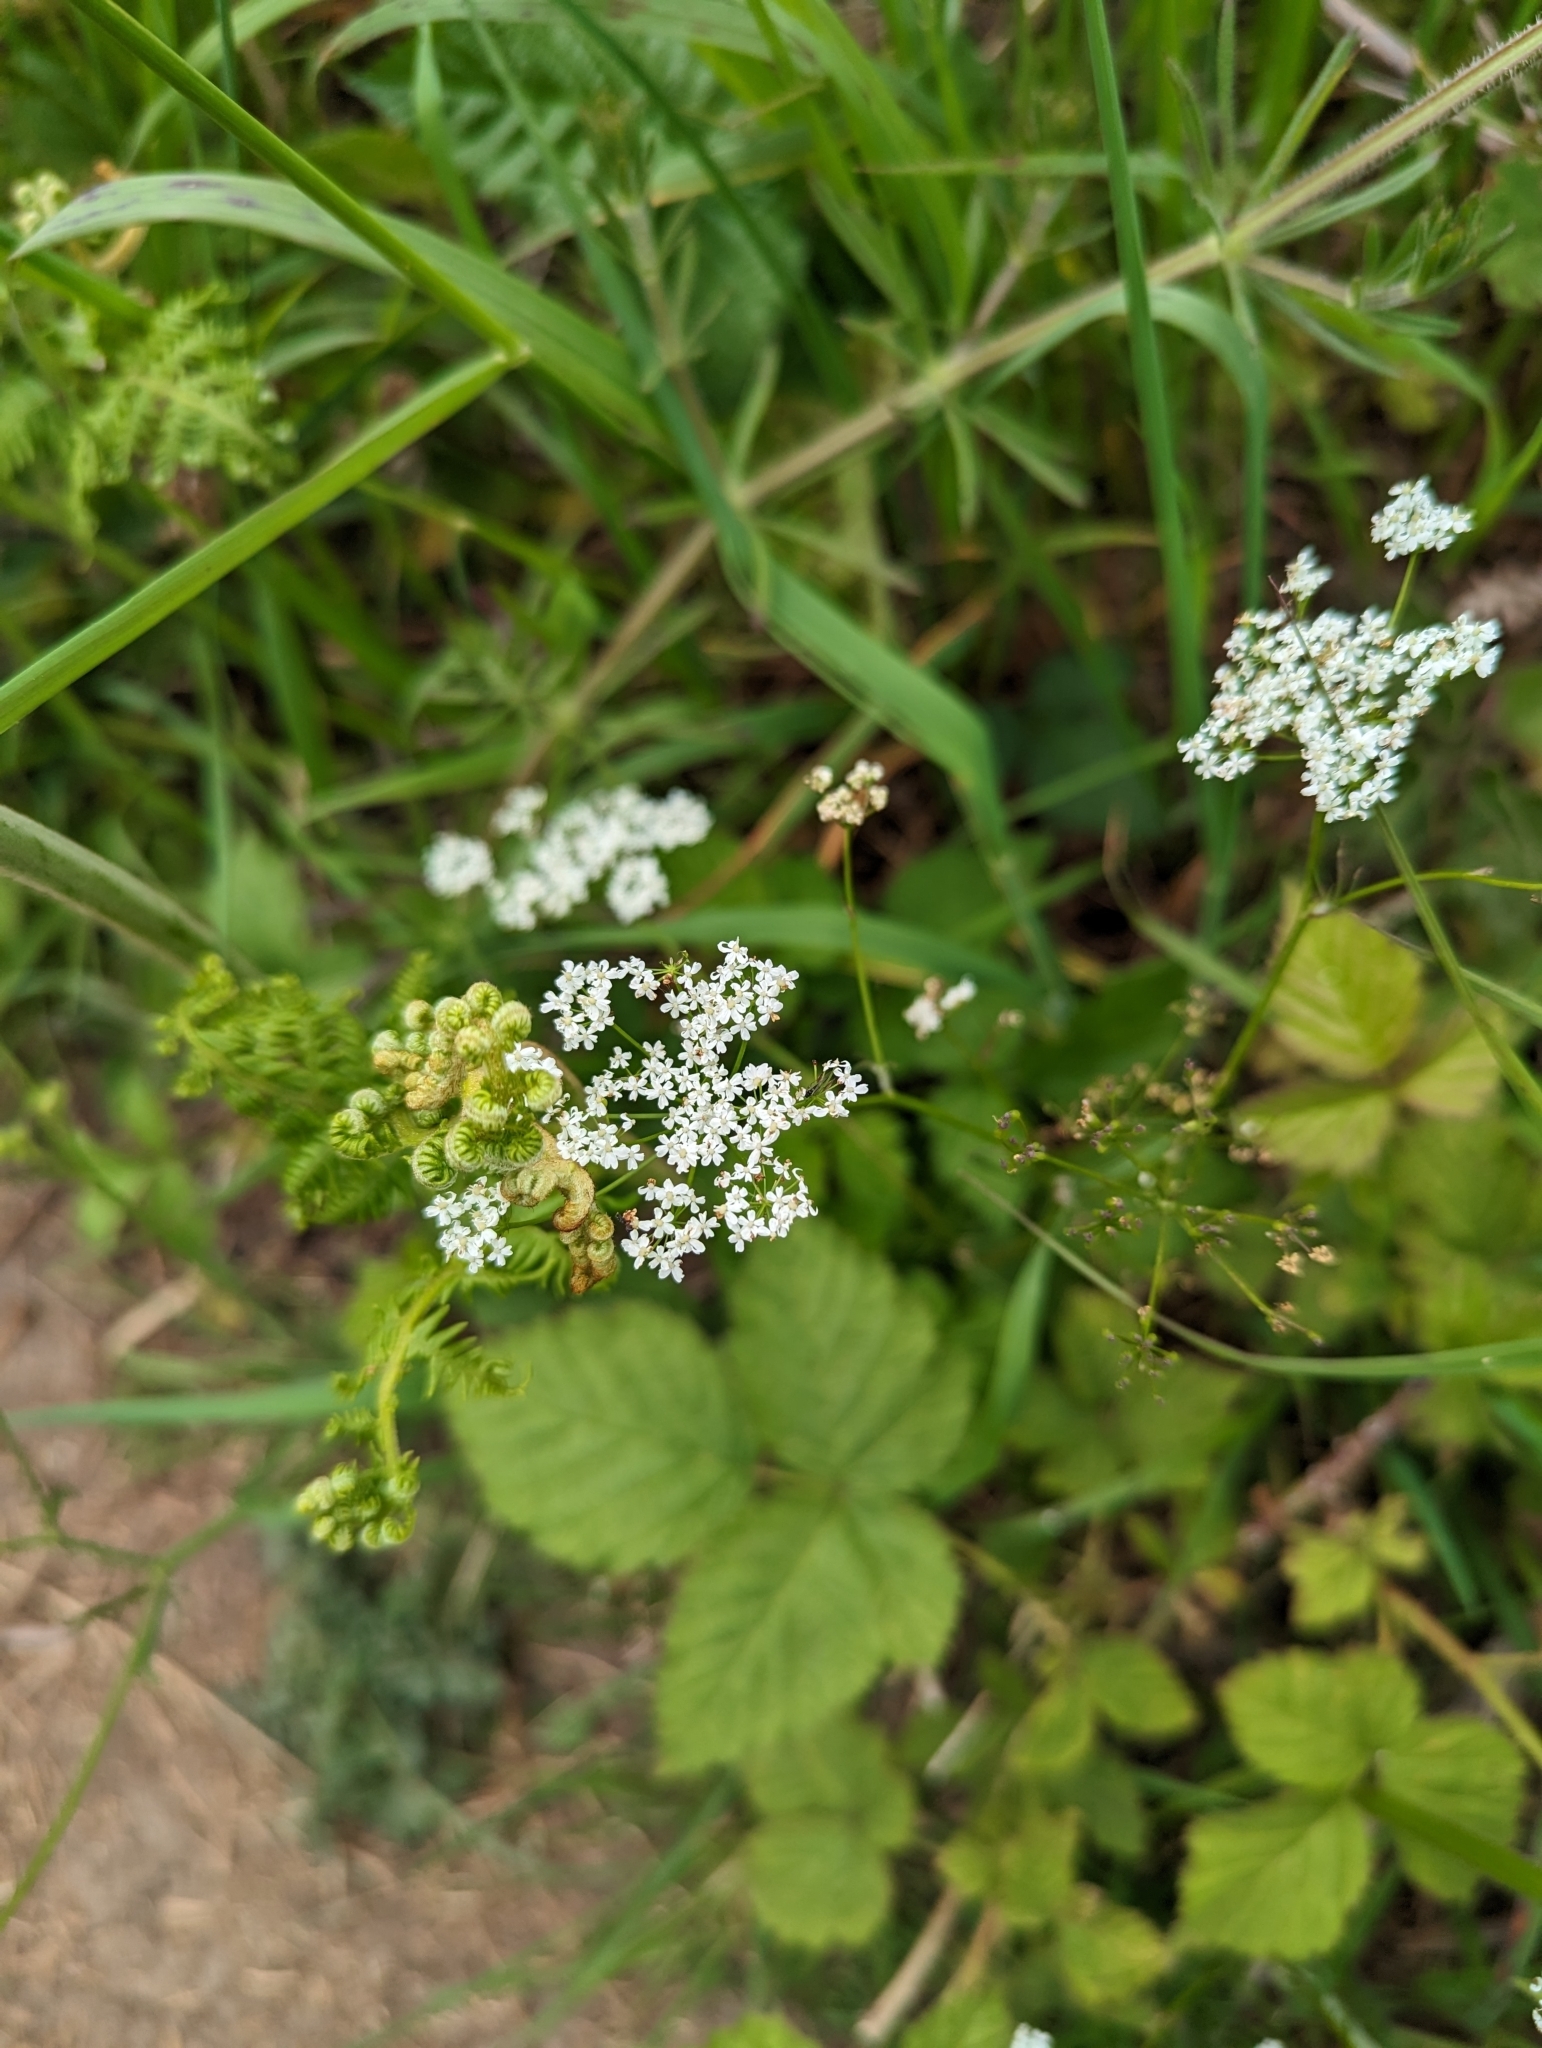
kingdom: Plantae
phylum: Tracheophyta
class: Magnoliopsida
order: Apiales
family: Apiaceae
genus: Conopodium
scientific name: Conopodium majus
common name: Pignut
